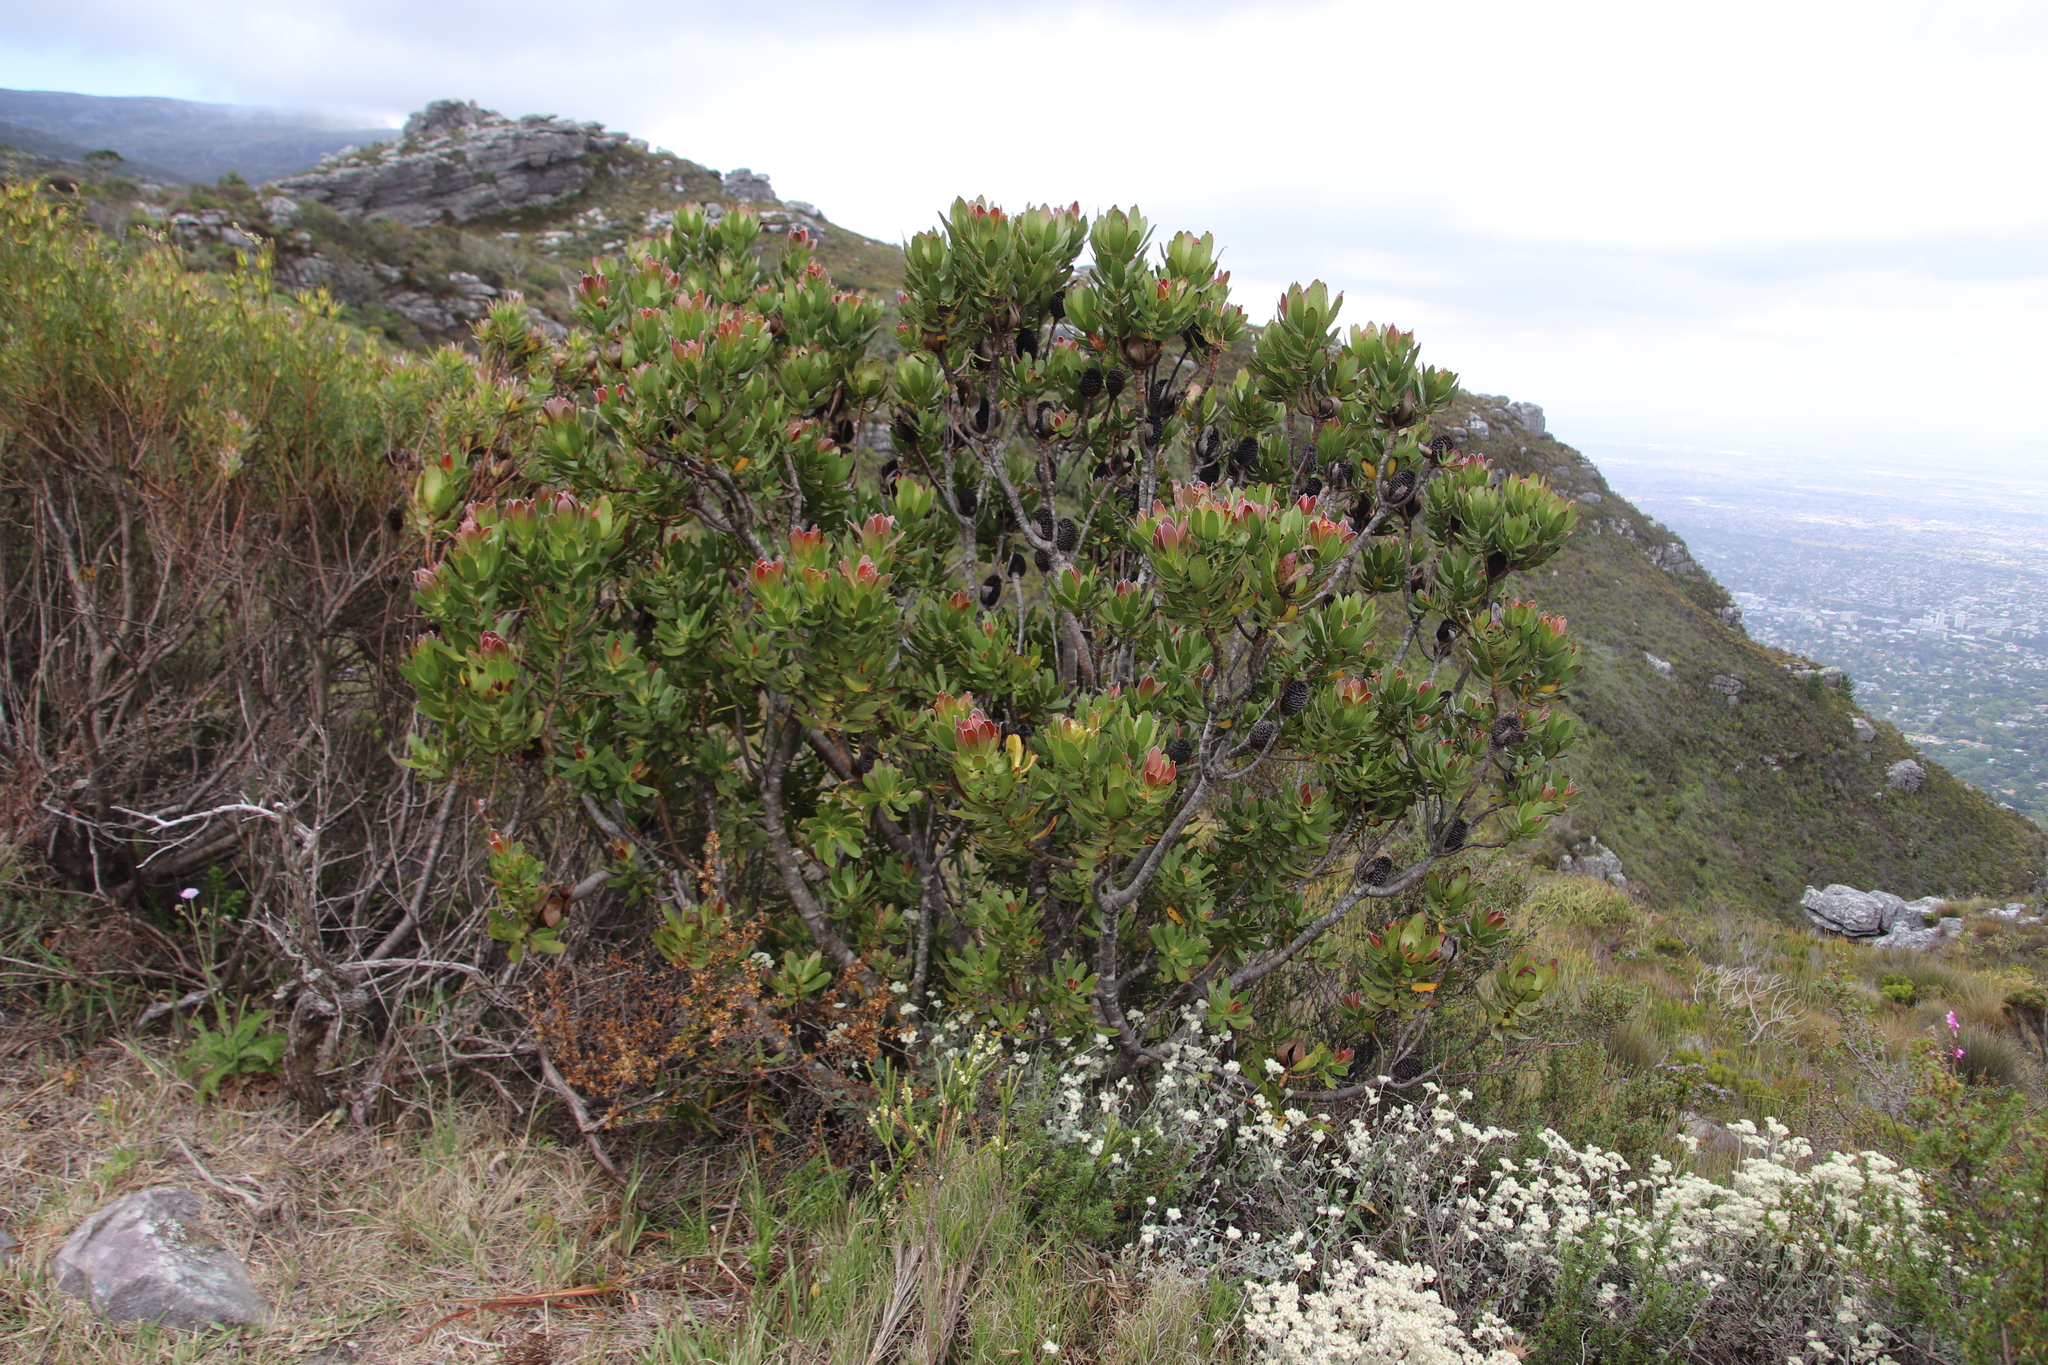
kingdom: Plantae
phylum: Tracheophyta
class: Magnoliopsida
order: Proteales
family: Proteaceae
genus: Leucadendron
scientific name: Leucadendron strobilinum
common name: Mountain rose
